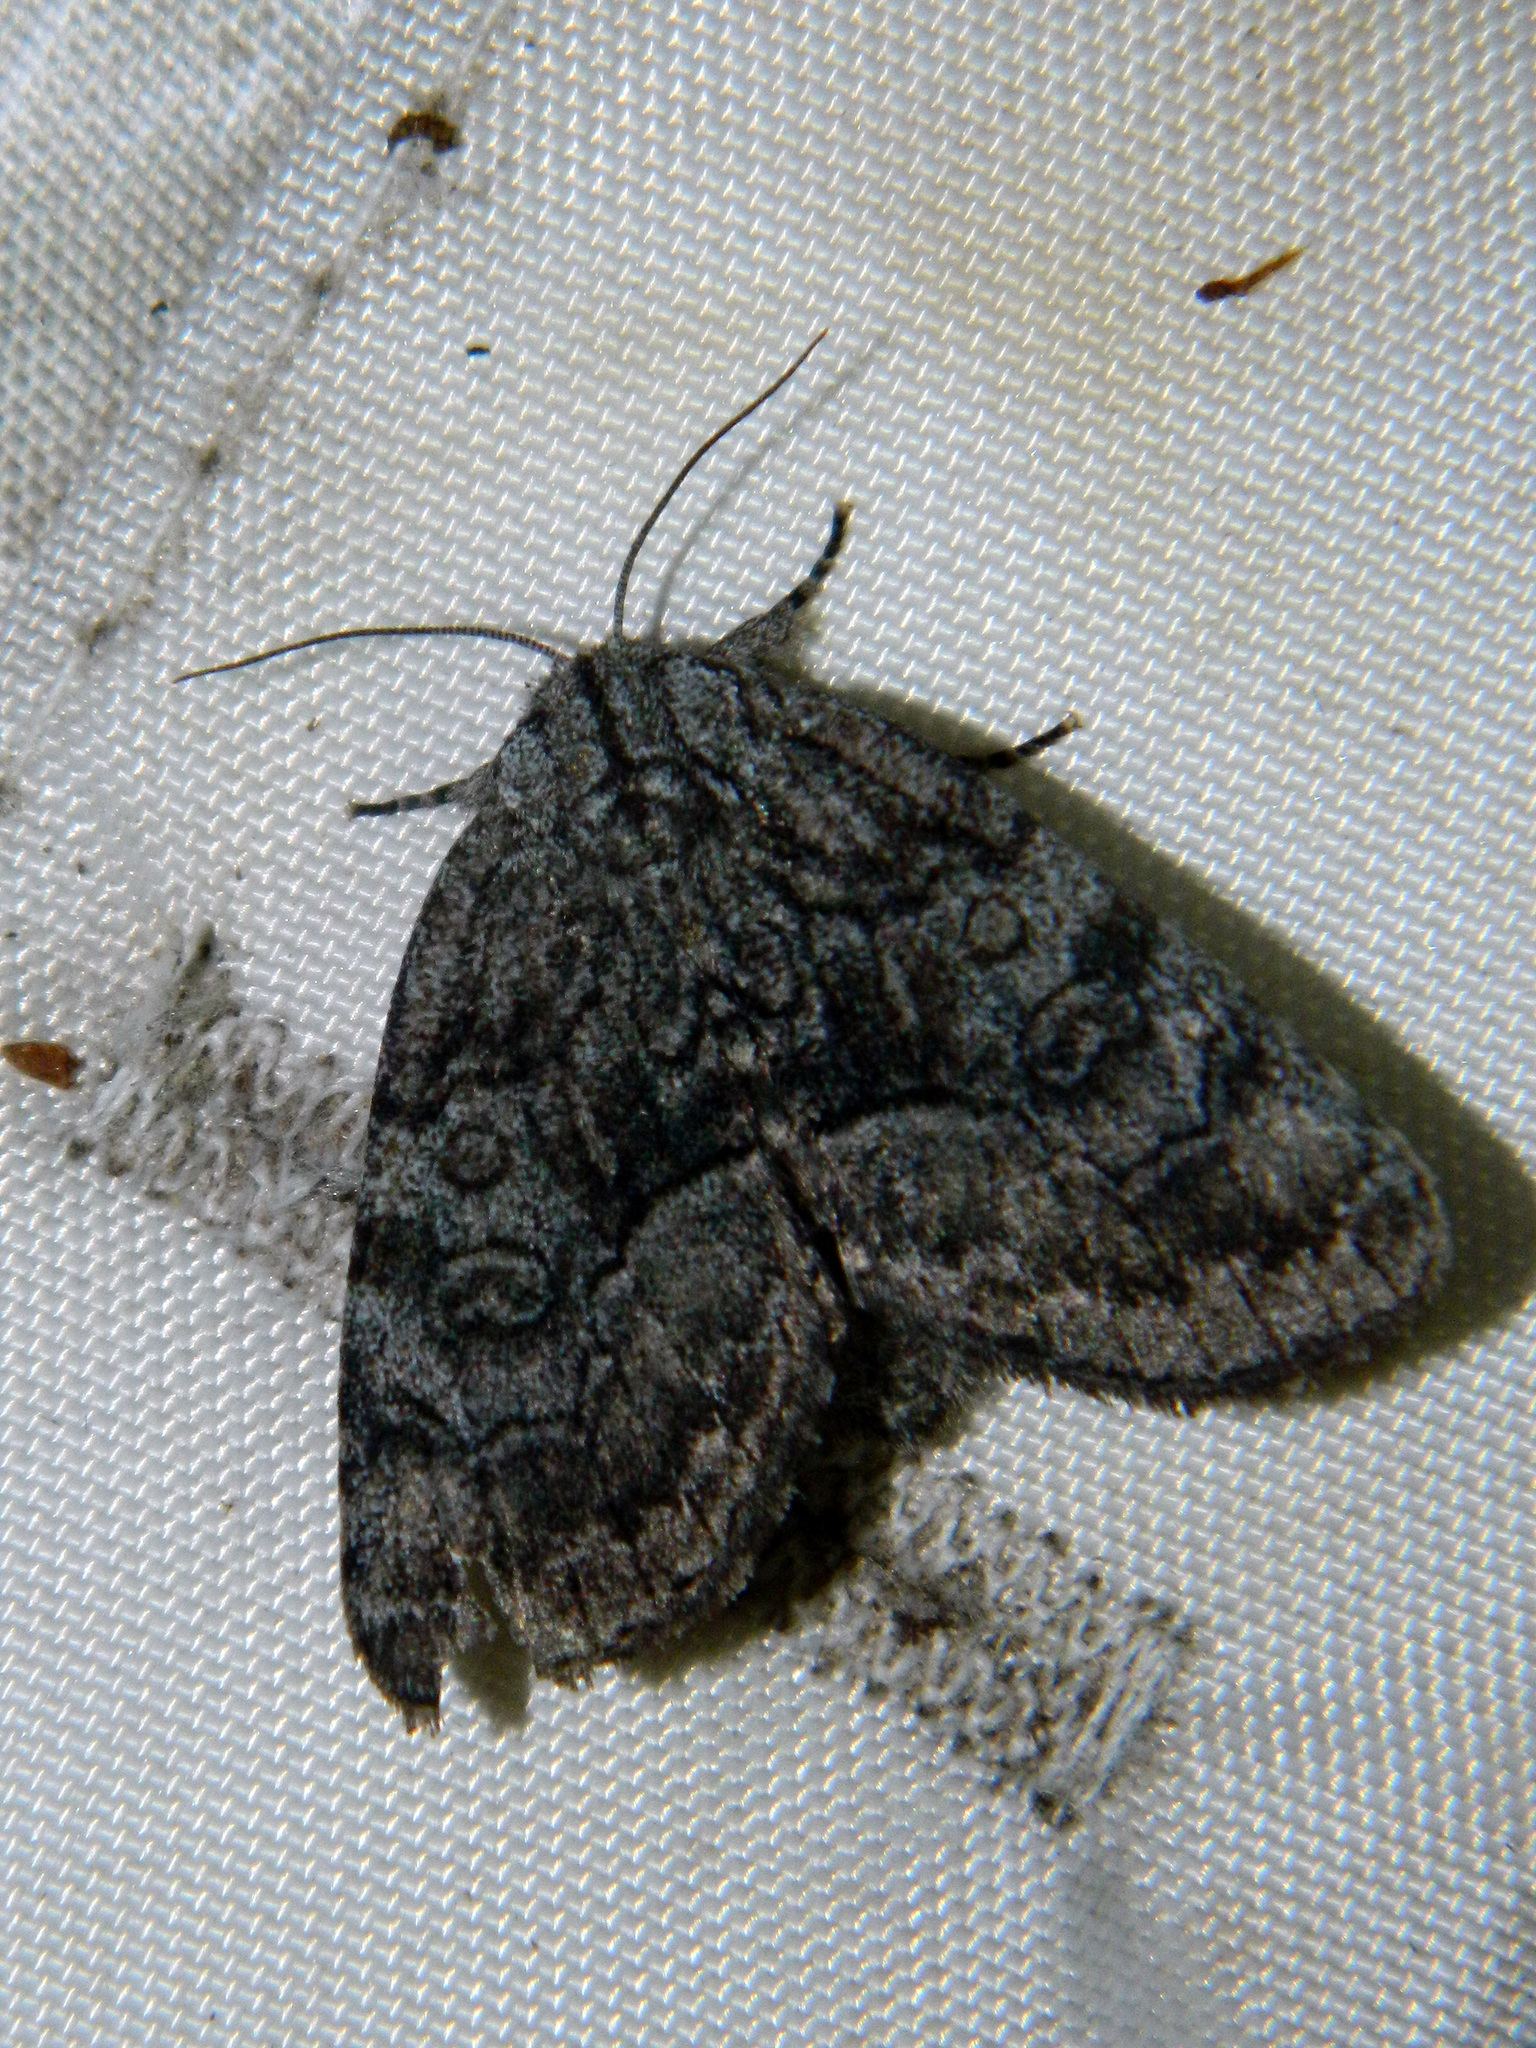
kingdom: Animalia
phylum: Arthropoda
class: Insecta
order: Lepidoptera
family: Noctuidae
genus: Raphia
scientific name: Raphia frater
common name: Brother
